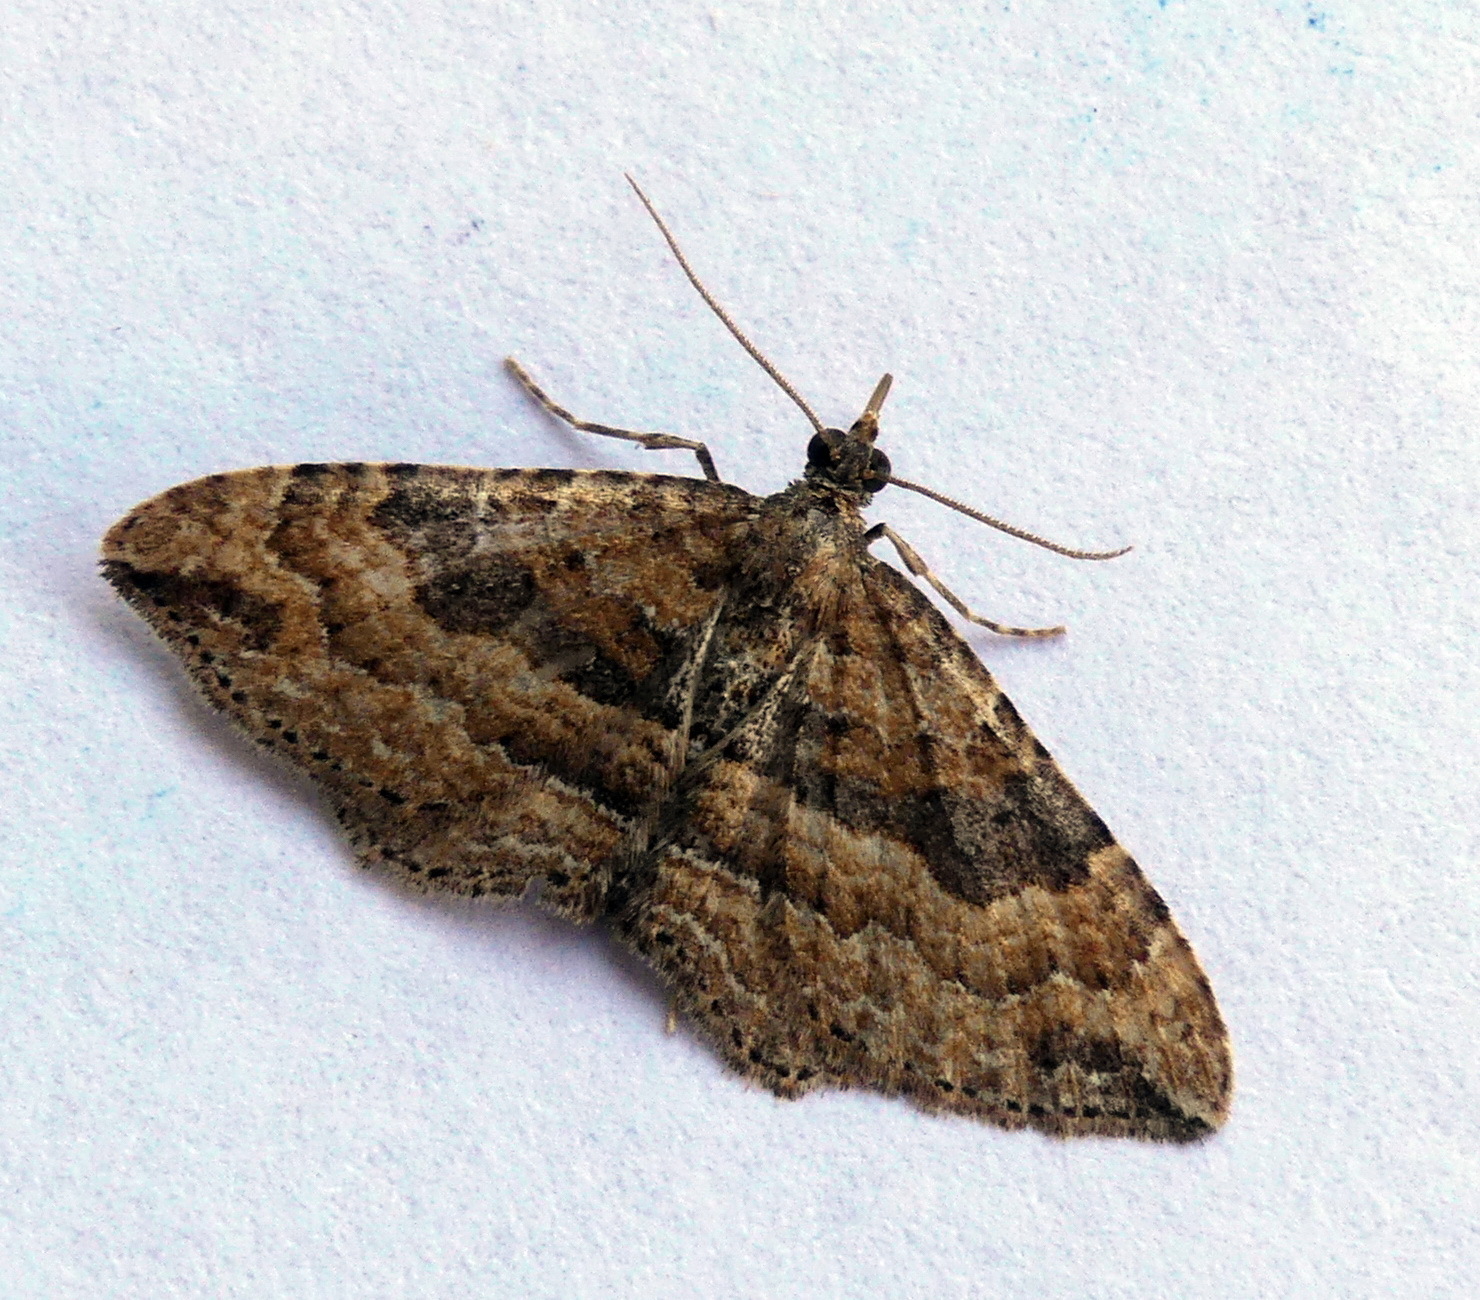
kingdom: Animalia
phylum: Arthropoda
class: Insecta
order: Lepidoptera
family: Geometridae
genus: Orthonama
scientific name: Orthonama obstipata
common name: The gem
